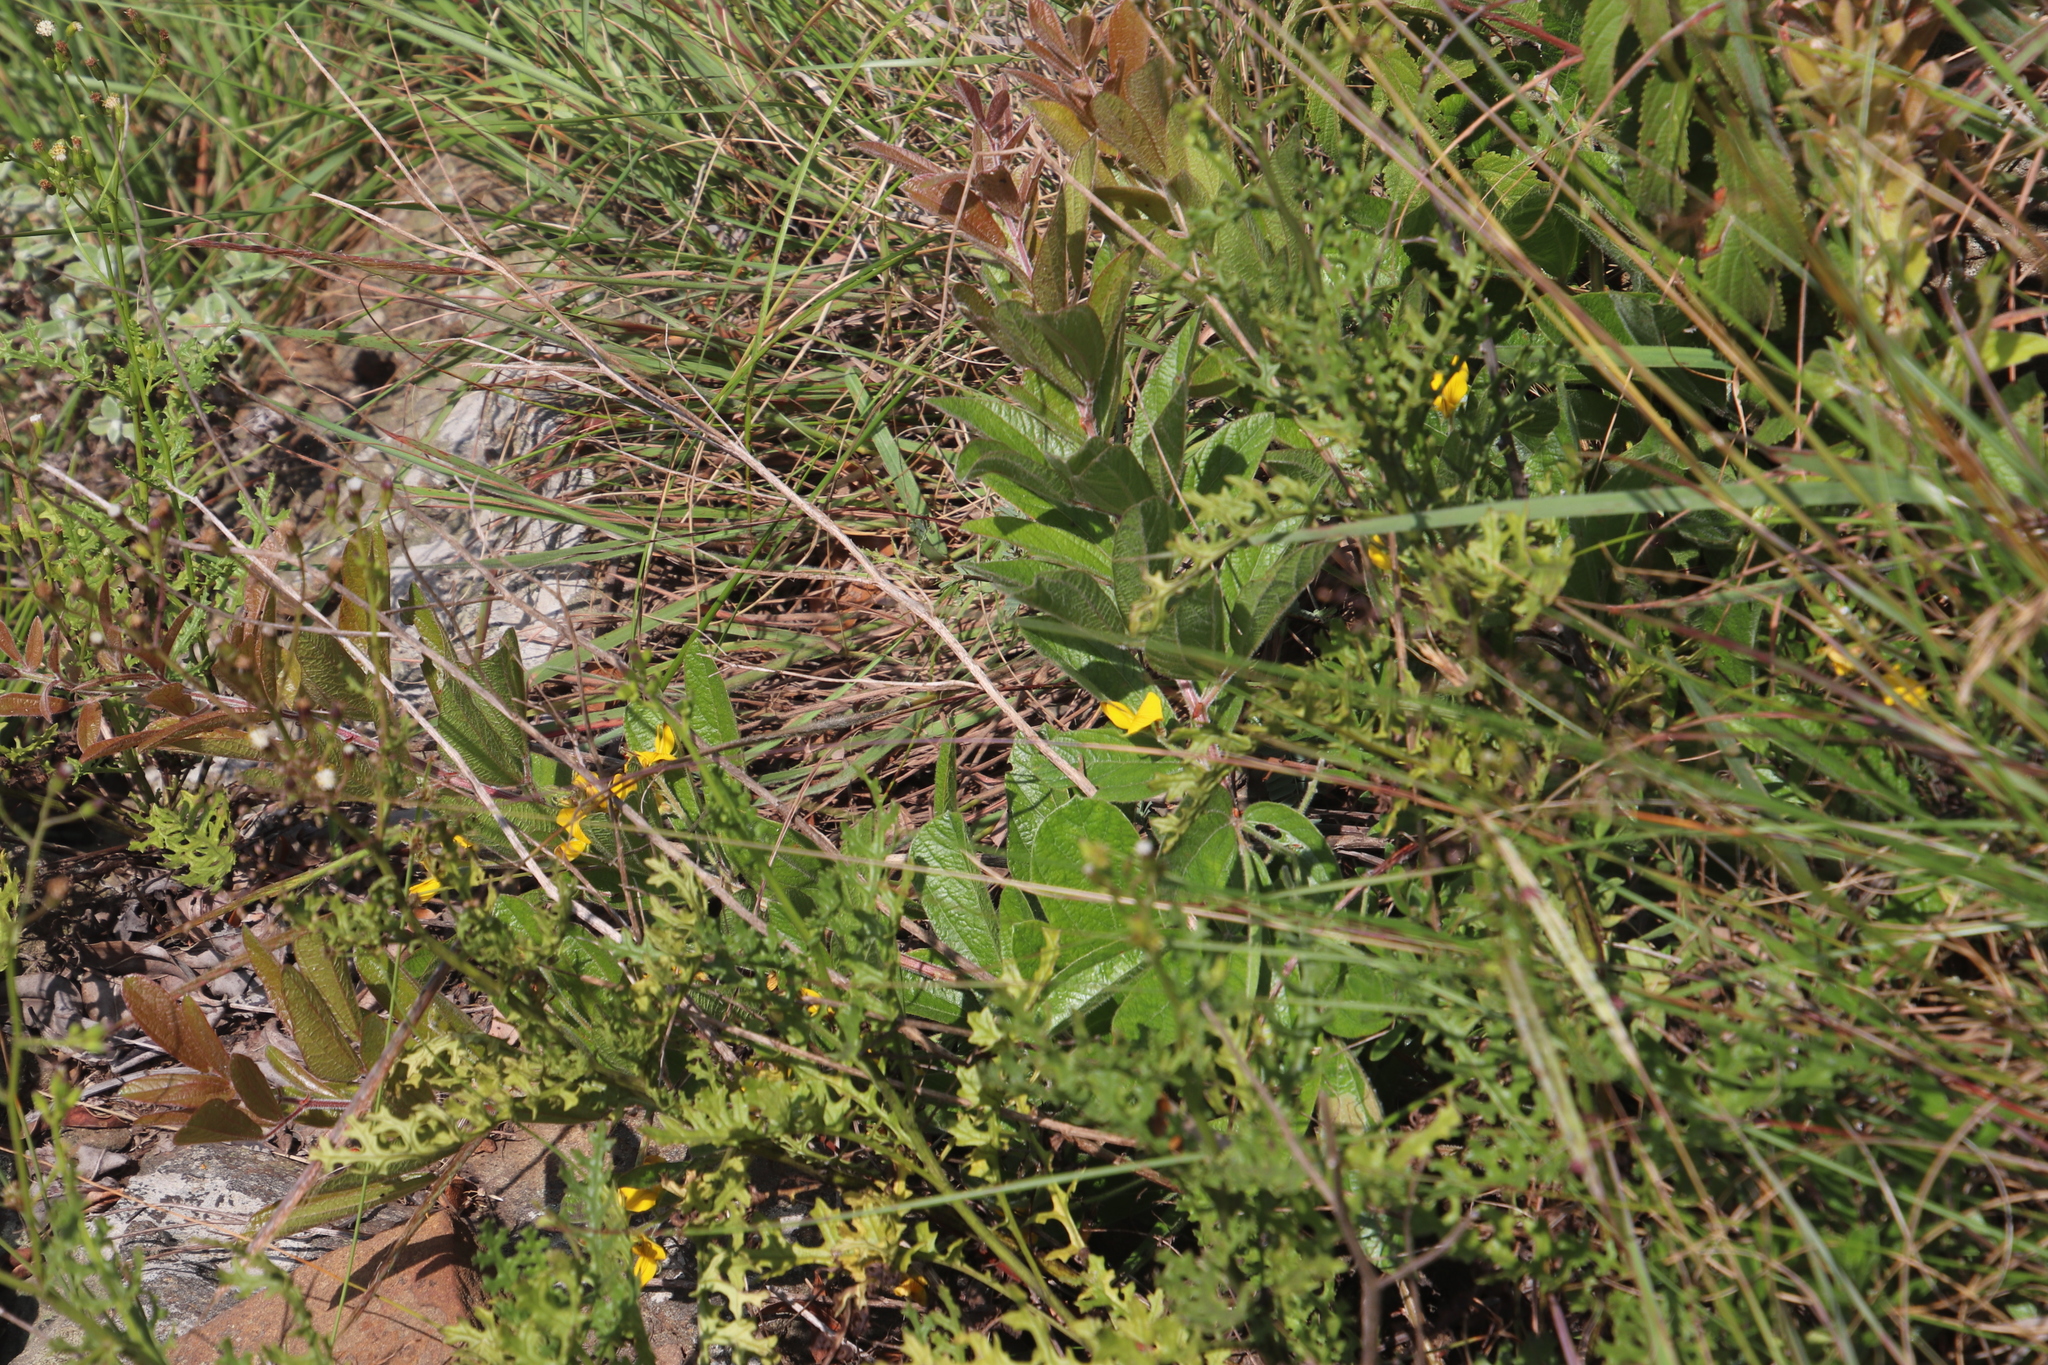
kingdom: Plantae
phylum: Tracheophyta
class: Magnoliopsida
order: Fabales
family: Fabaceae
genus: Rhynchosia
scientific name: Rhynchosia angulosa
